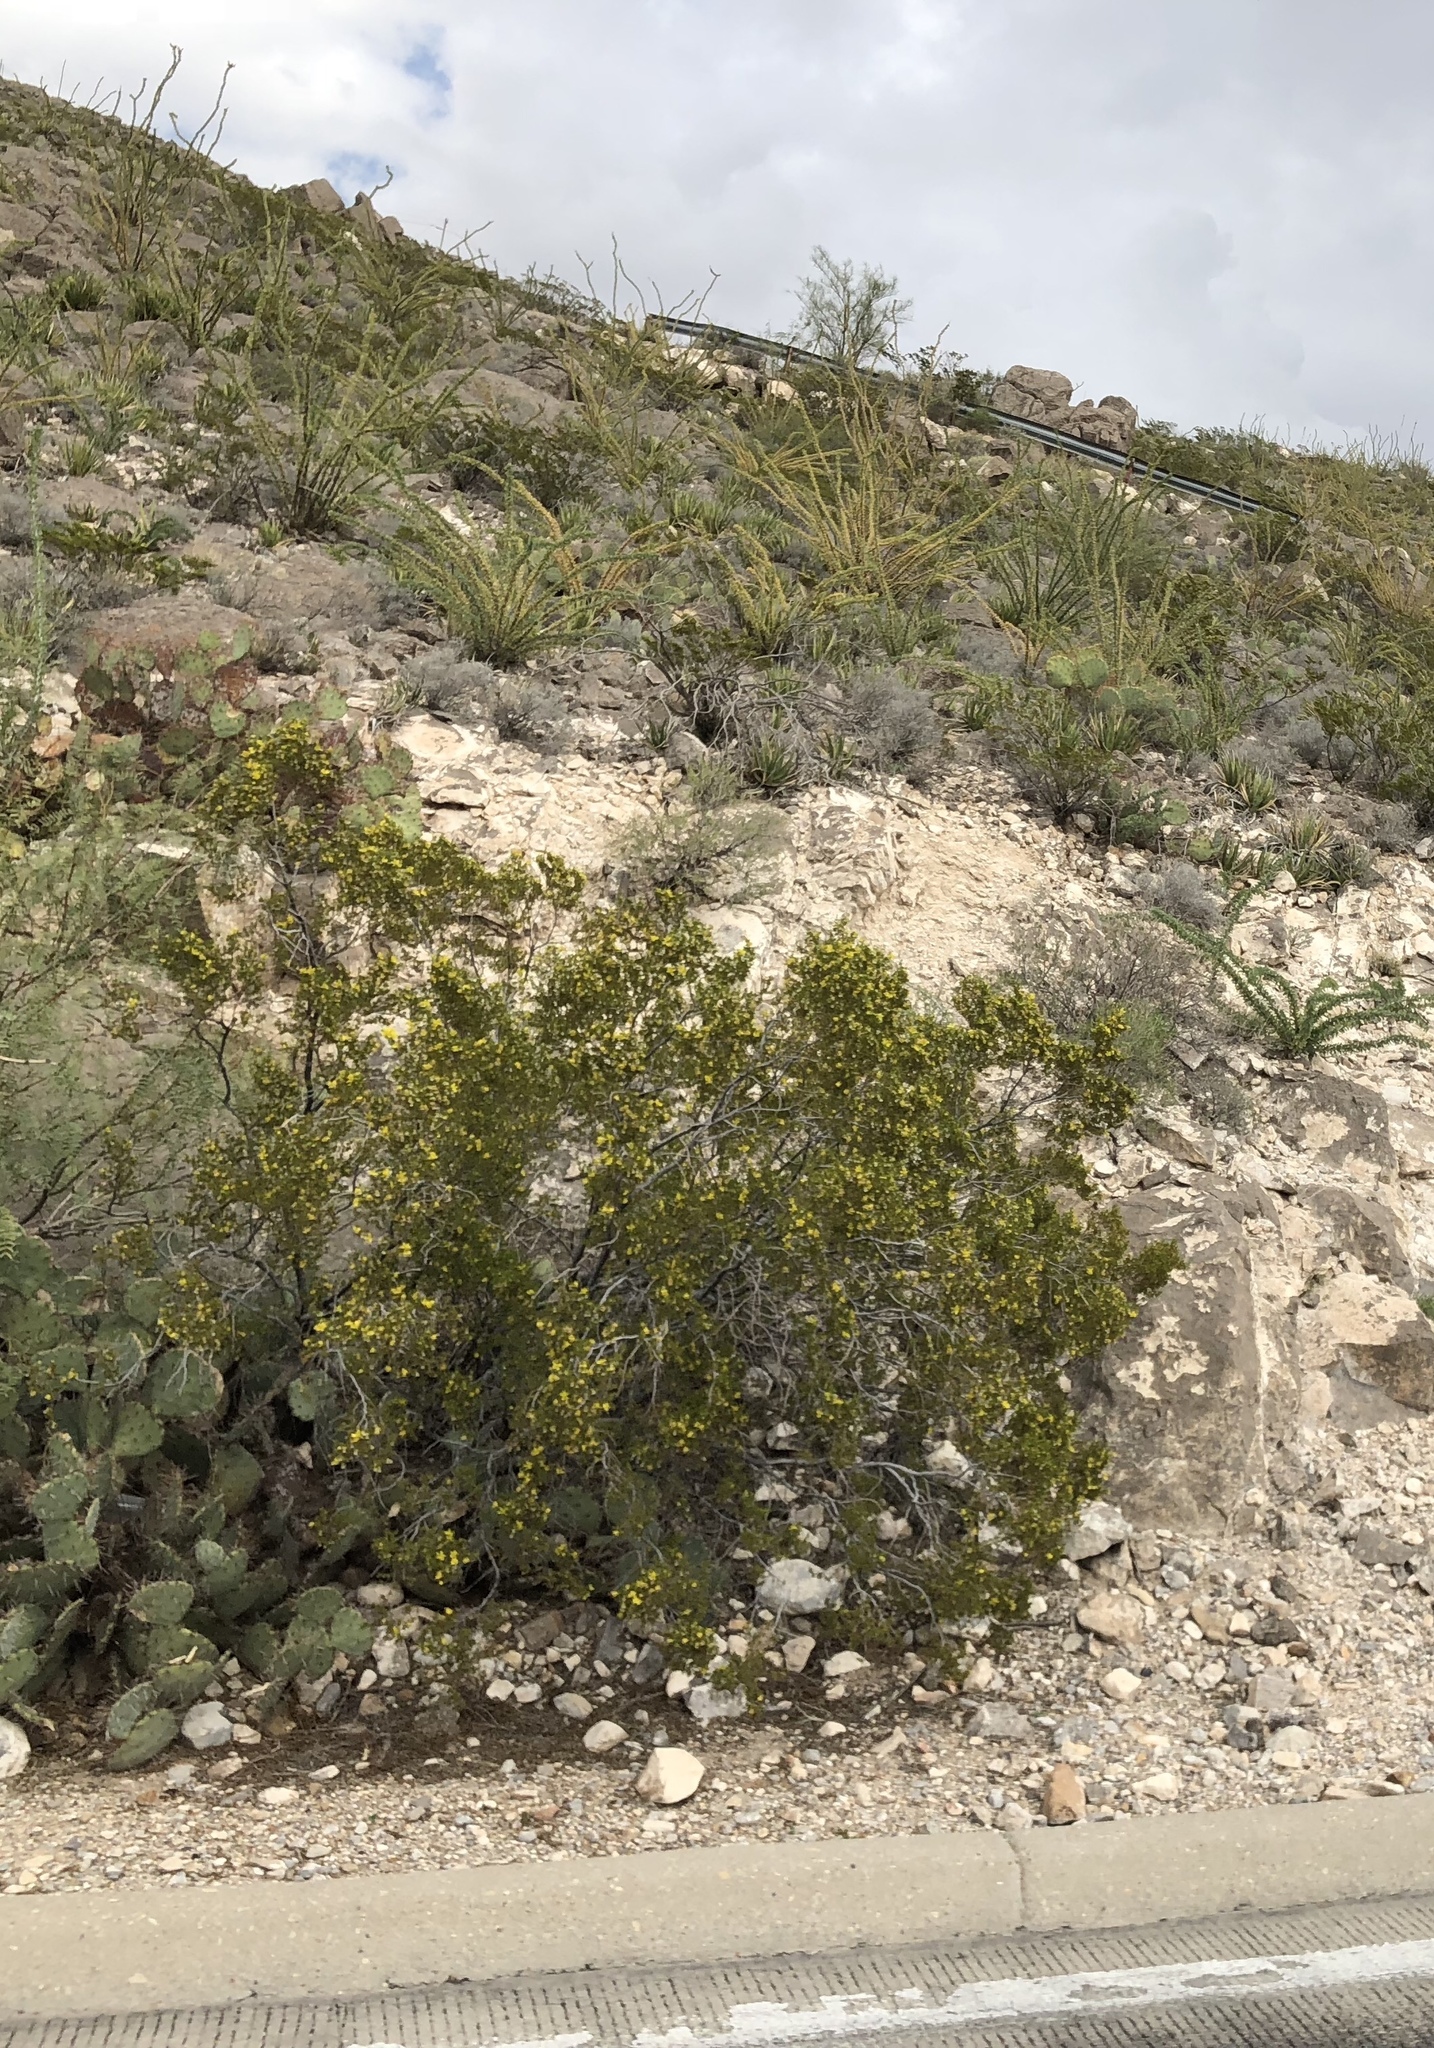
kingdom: Plantae
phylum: Tracheophyta
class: Magnoliopsida
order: Zygophyllales
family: Zygophyllaceae
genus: Larrea
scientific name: Larrea tridentata
